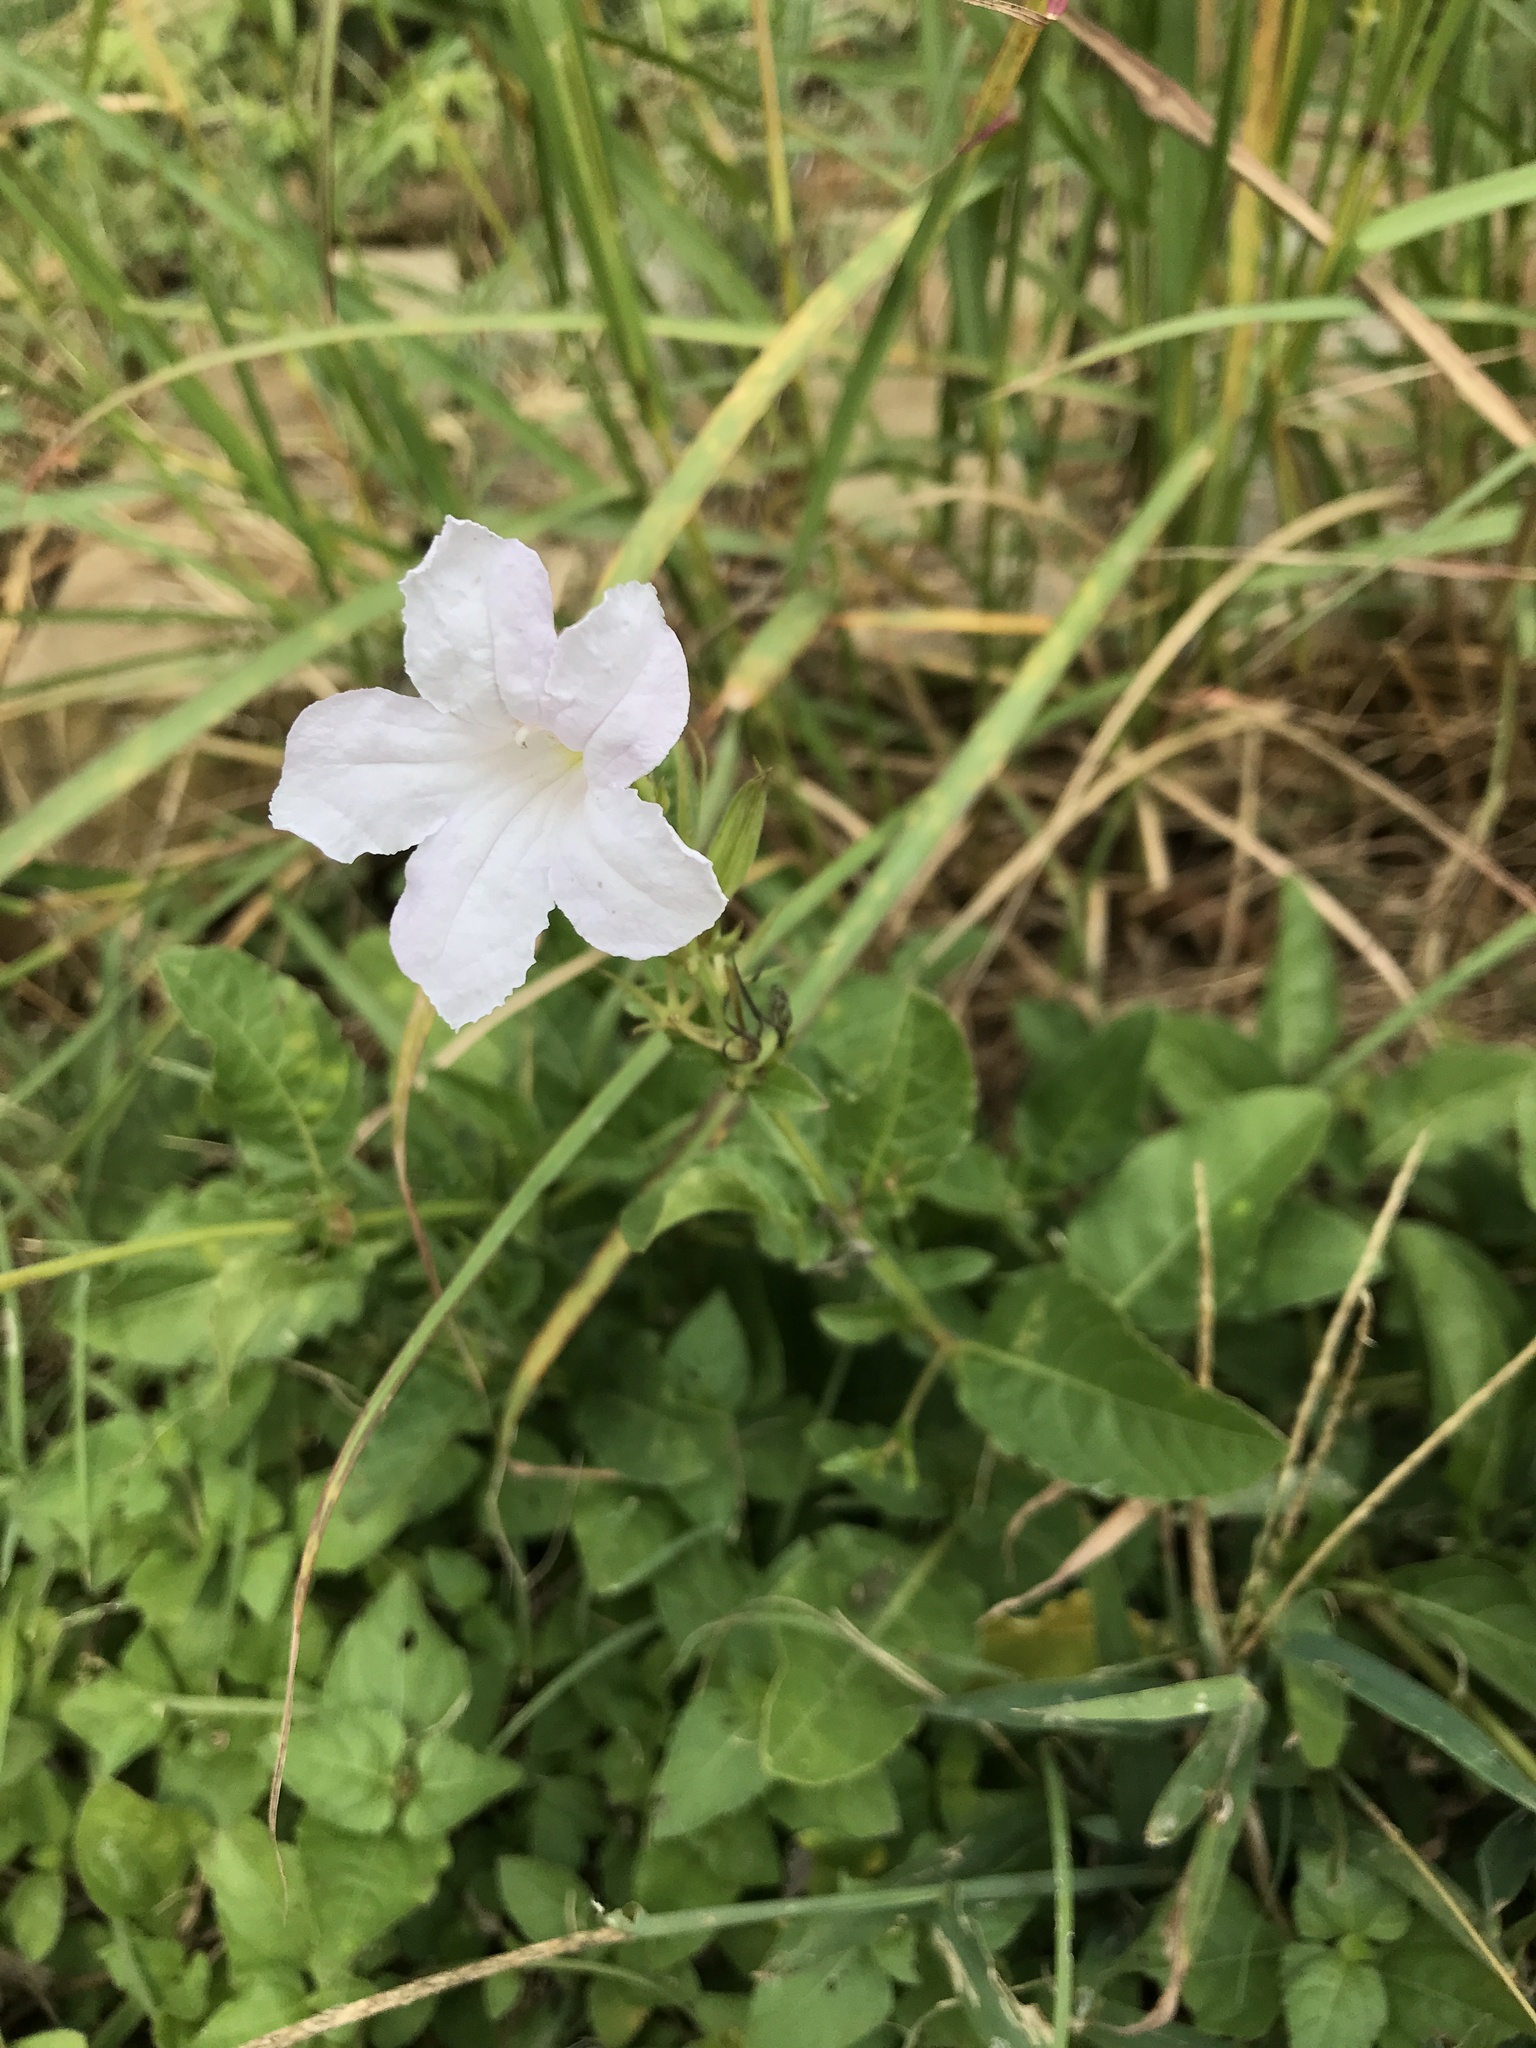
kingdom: Plantae
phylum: Tracheophyta
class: Magnoliopsida
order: Lamiales
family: Acanthaceae
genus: Ruellia
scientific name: Ruellia ciliatiflora
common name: Hairyflower wild petunia
